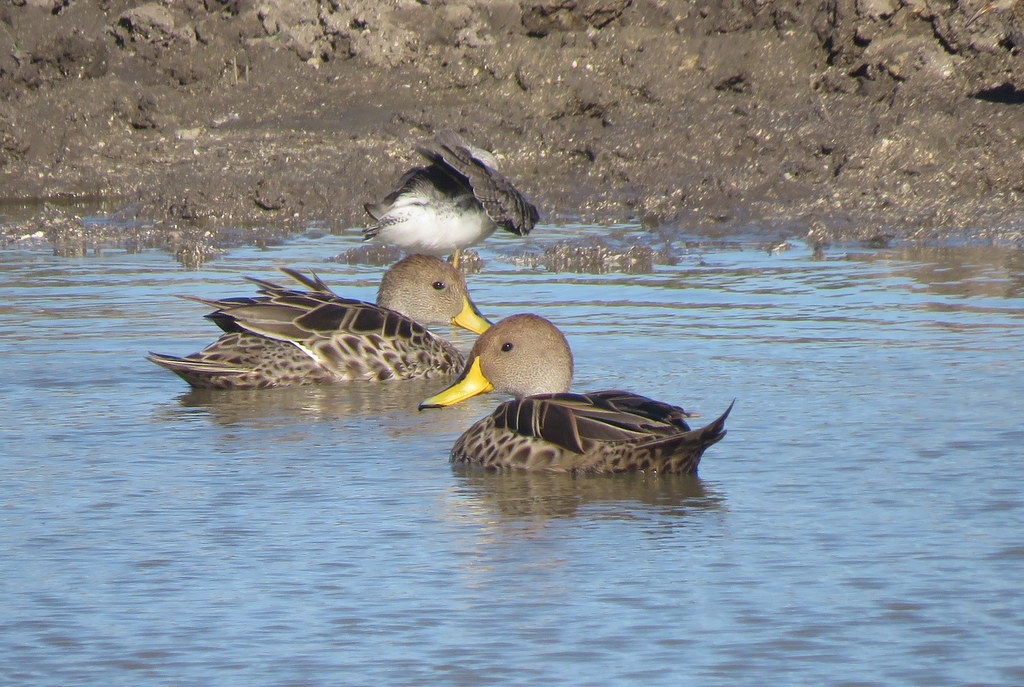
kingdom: Animalia
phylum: Chordata
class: Aves
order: Anseriformes
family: Anatidae
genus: Anas
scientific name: Anas georgica
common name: Yellow-billed pintail
